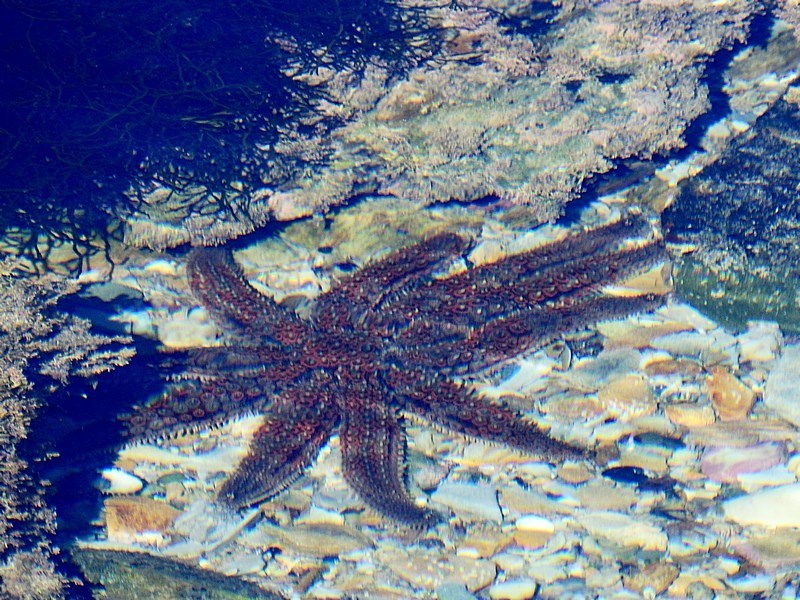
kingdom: Animalia
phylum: Echinodermata
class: Asteroidea
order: Forcipulatida
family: Asteriidae
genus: Coscinasterias
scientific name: Coscinasterias muricata
